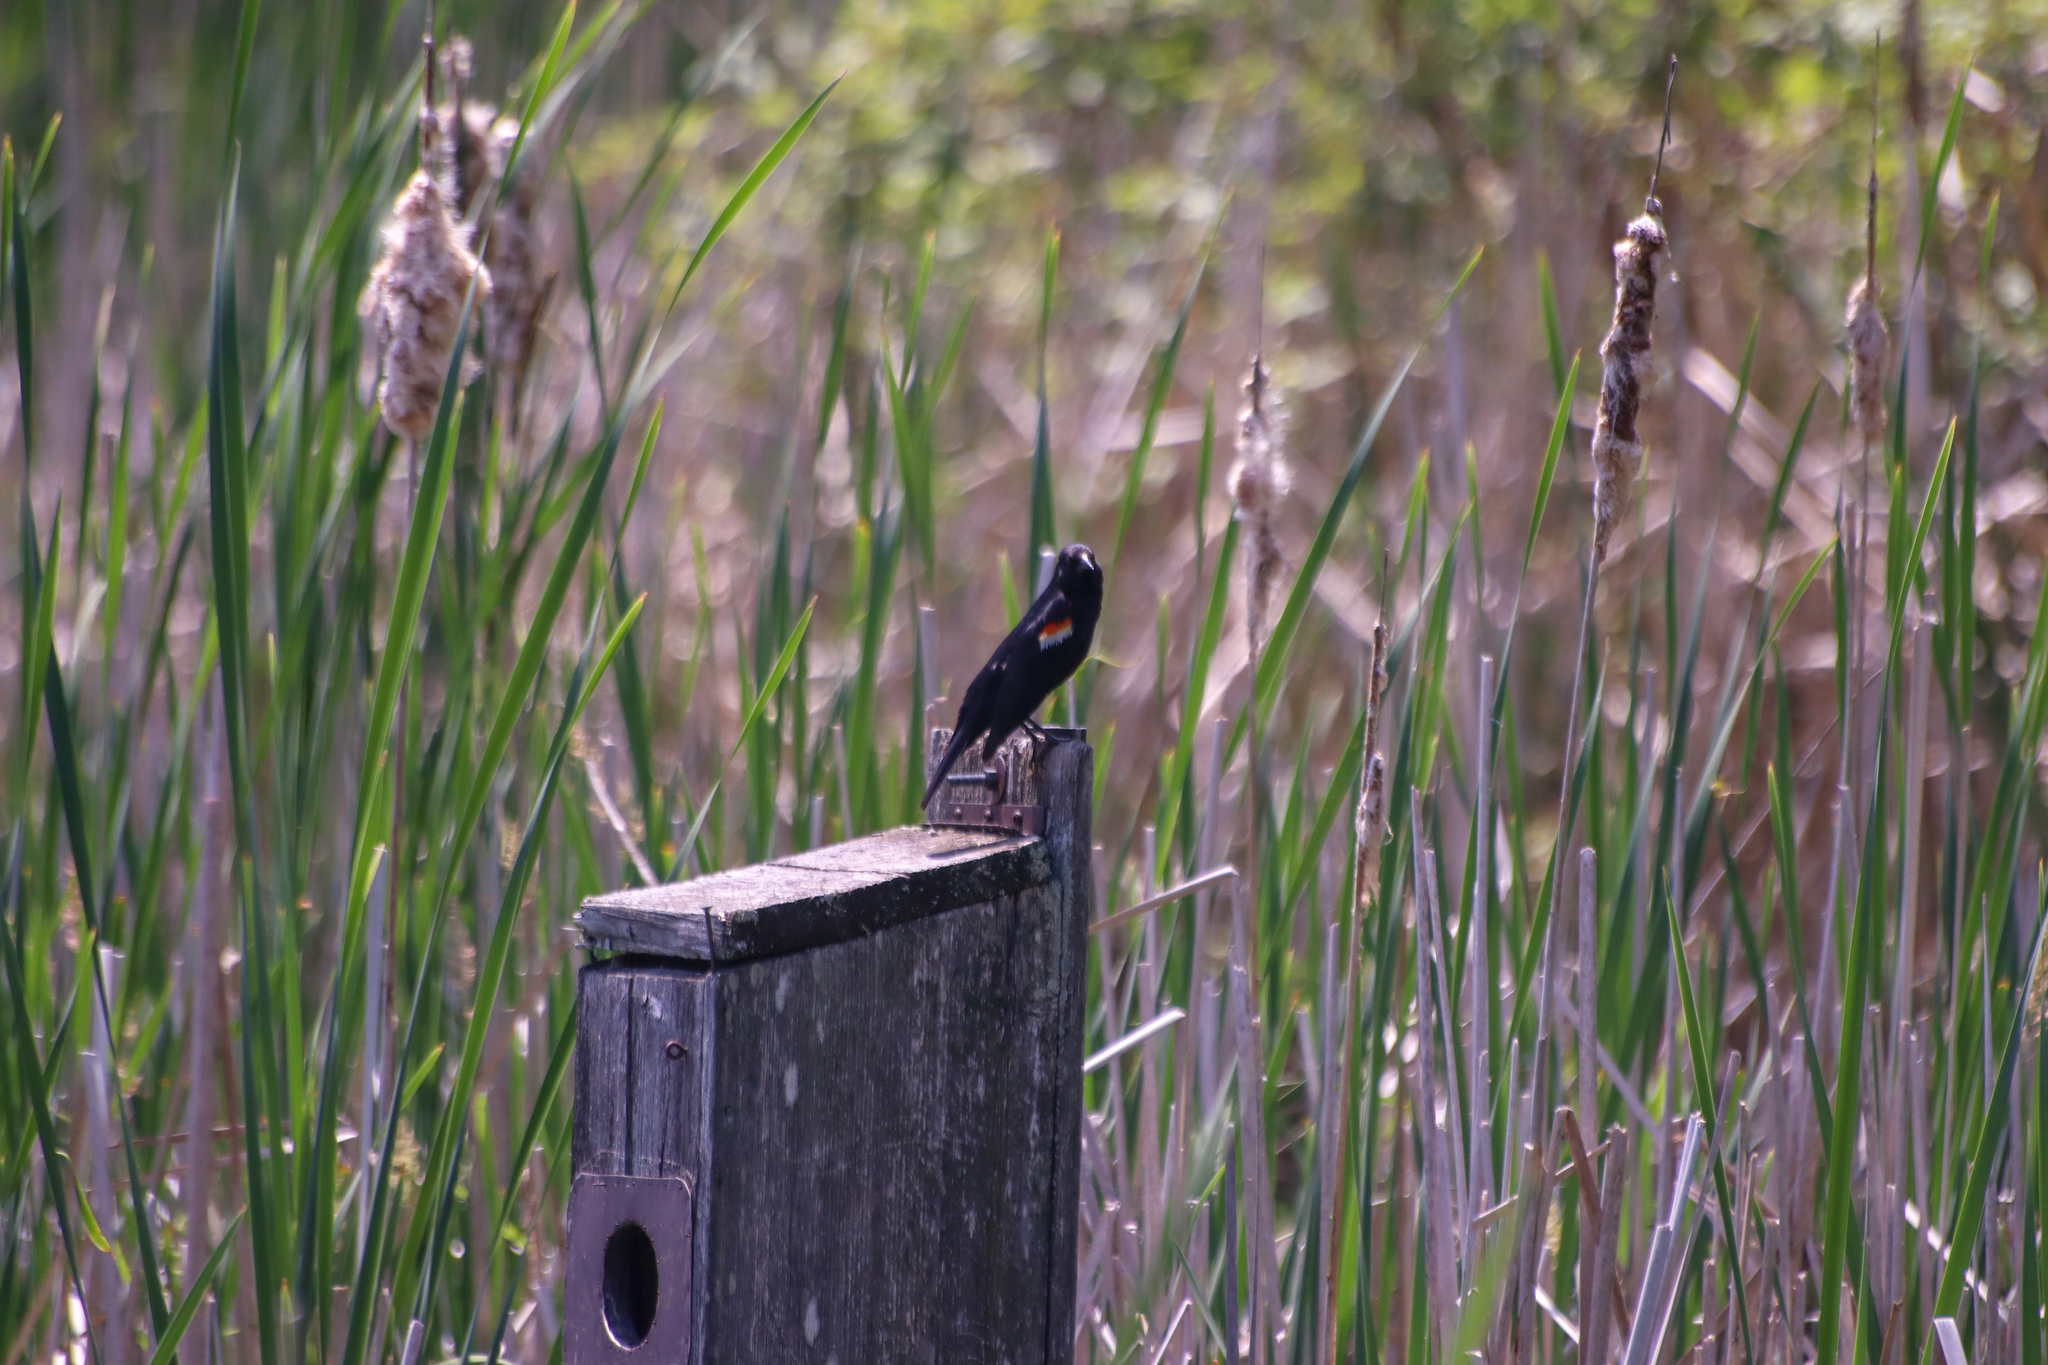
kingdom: Animalia
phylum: Chordata
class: Aves
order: Passeriformes
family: Icteridae
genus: Agelaius
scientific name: Agelaius phoeniceus
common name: Red-winged blackbird
